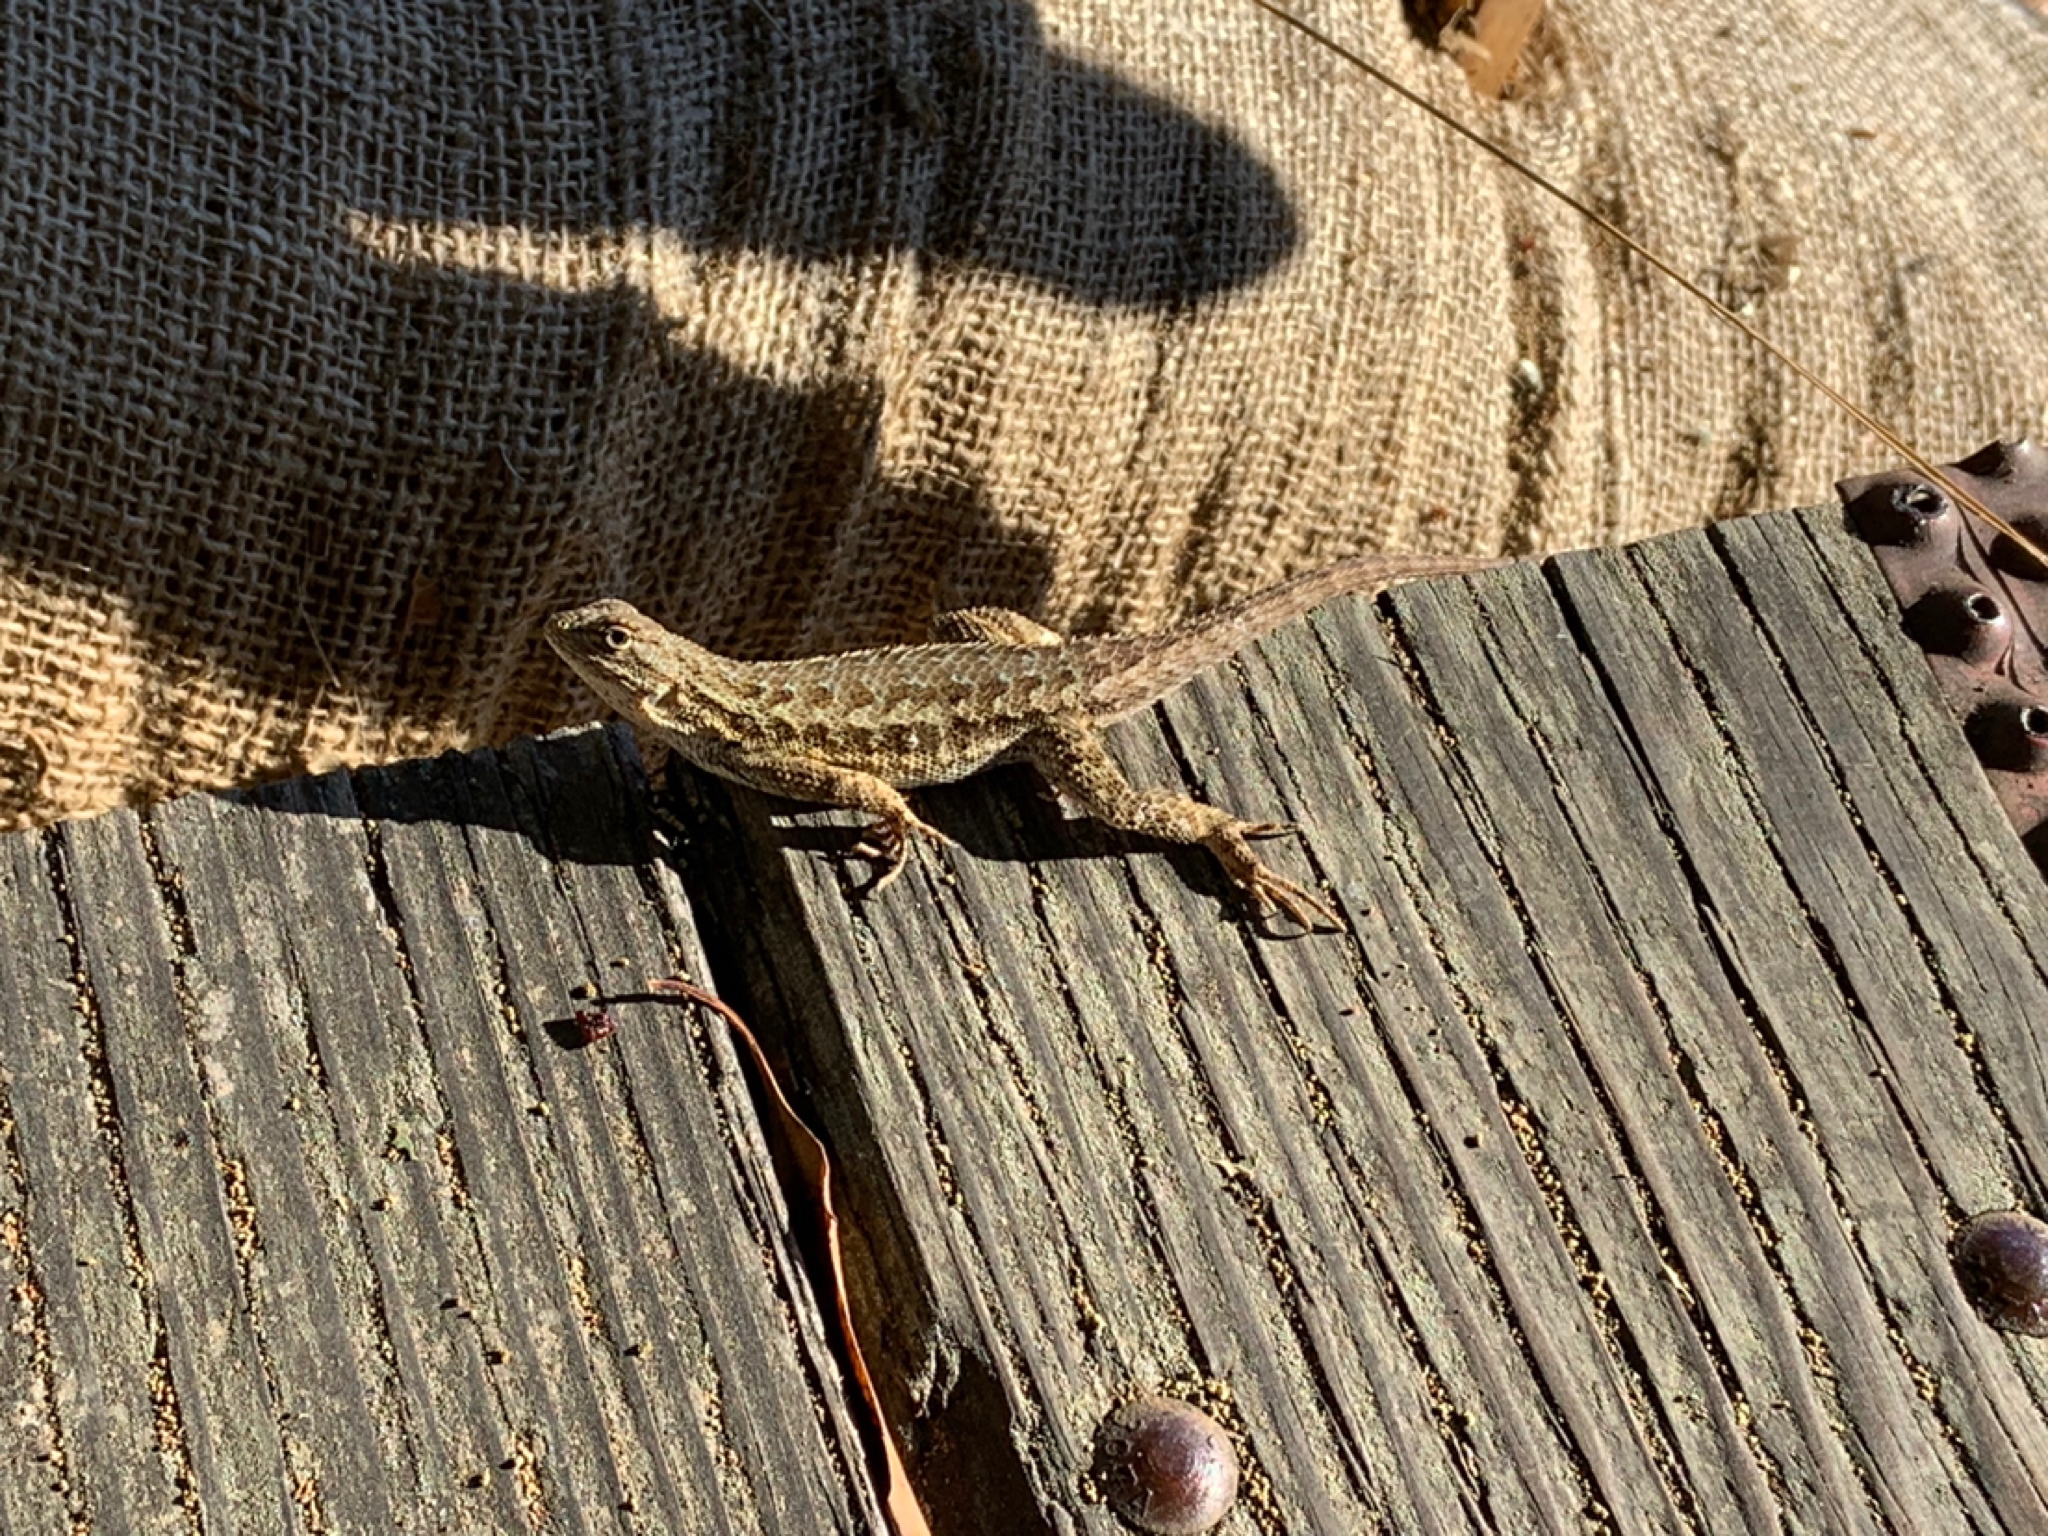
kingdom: Animalia
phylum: Chordata
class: Squamata
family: Phrynosomatidae
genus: Sceloporus
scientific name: Sceloporus occidentalis
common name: Western fence lizard
